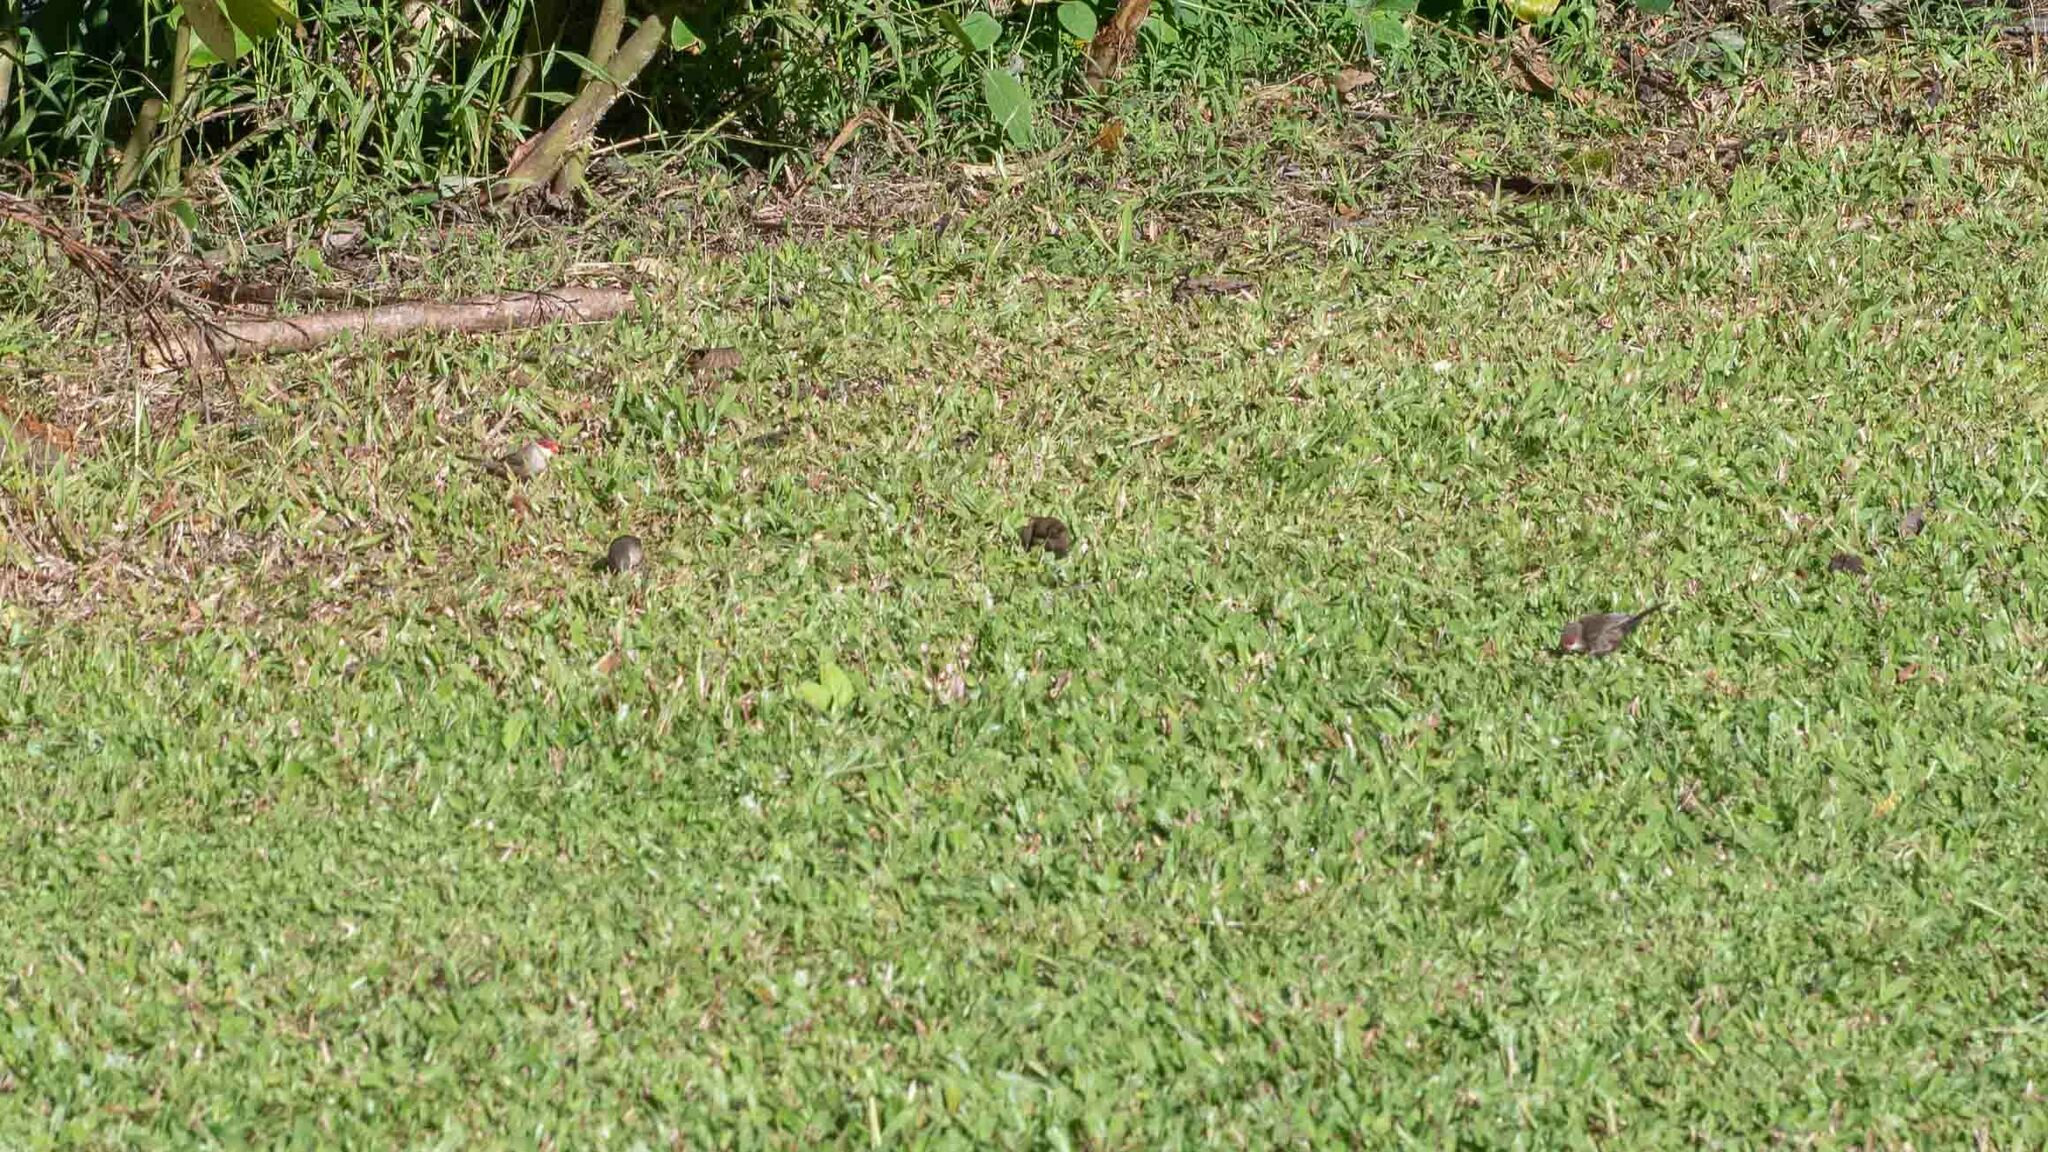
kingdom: Animalia
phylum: Chordata
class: Aves
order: Passeriformes
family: Estrildidae
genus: Estrilda
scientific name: Estrilda astrild
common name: Common waxbill
